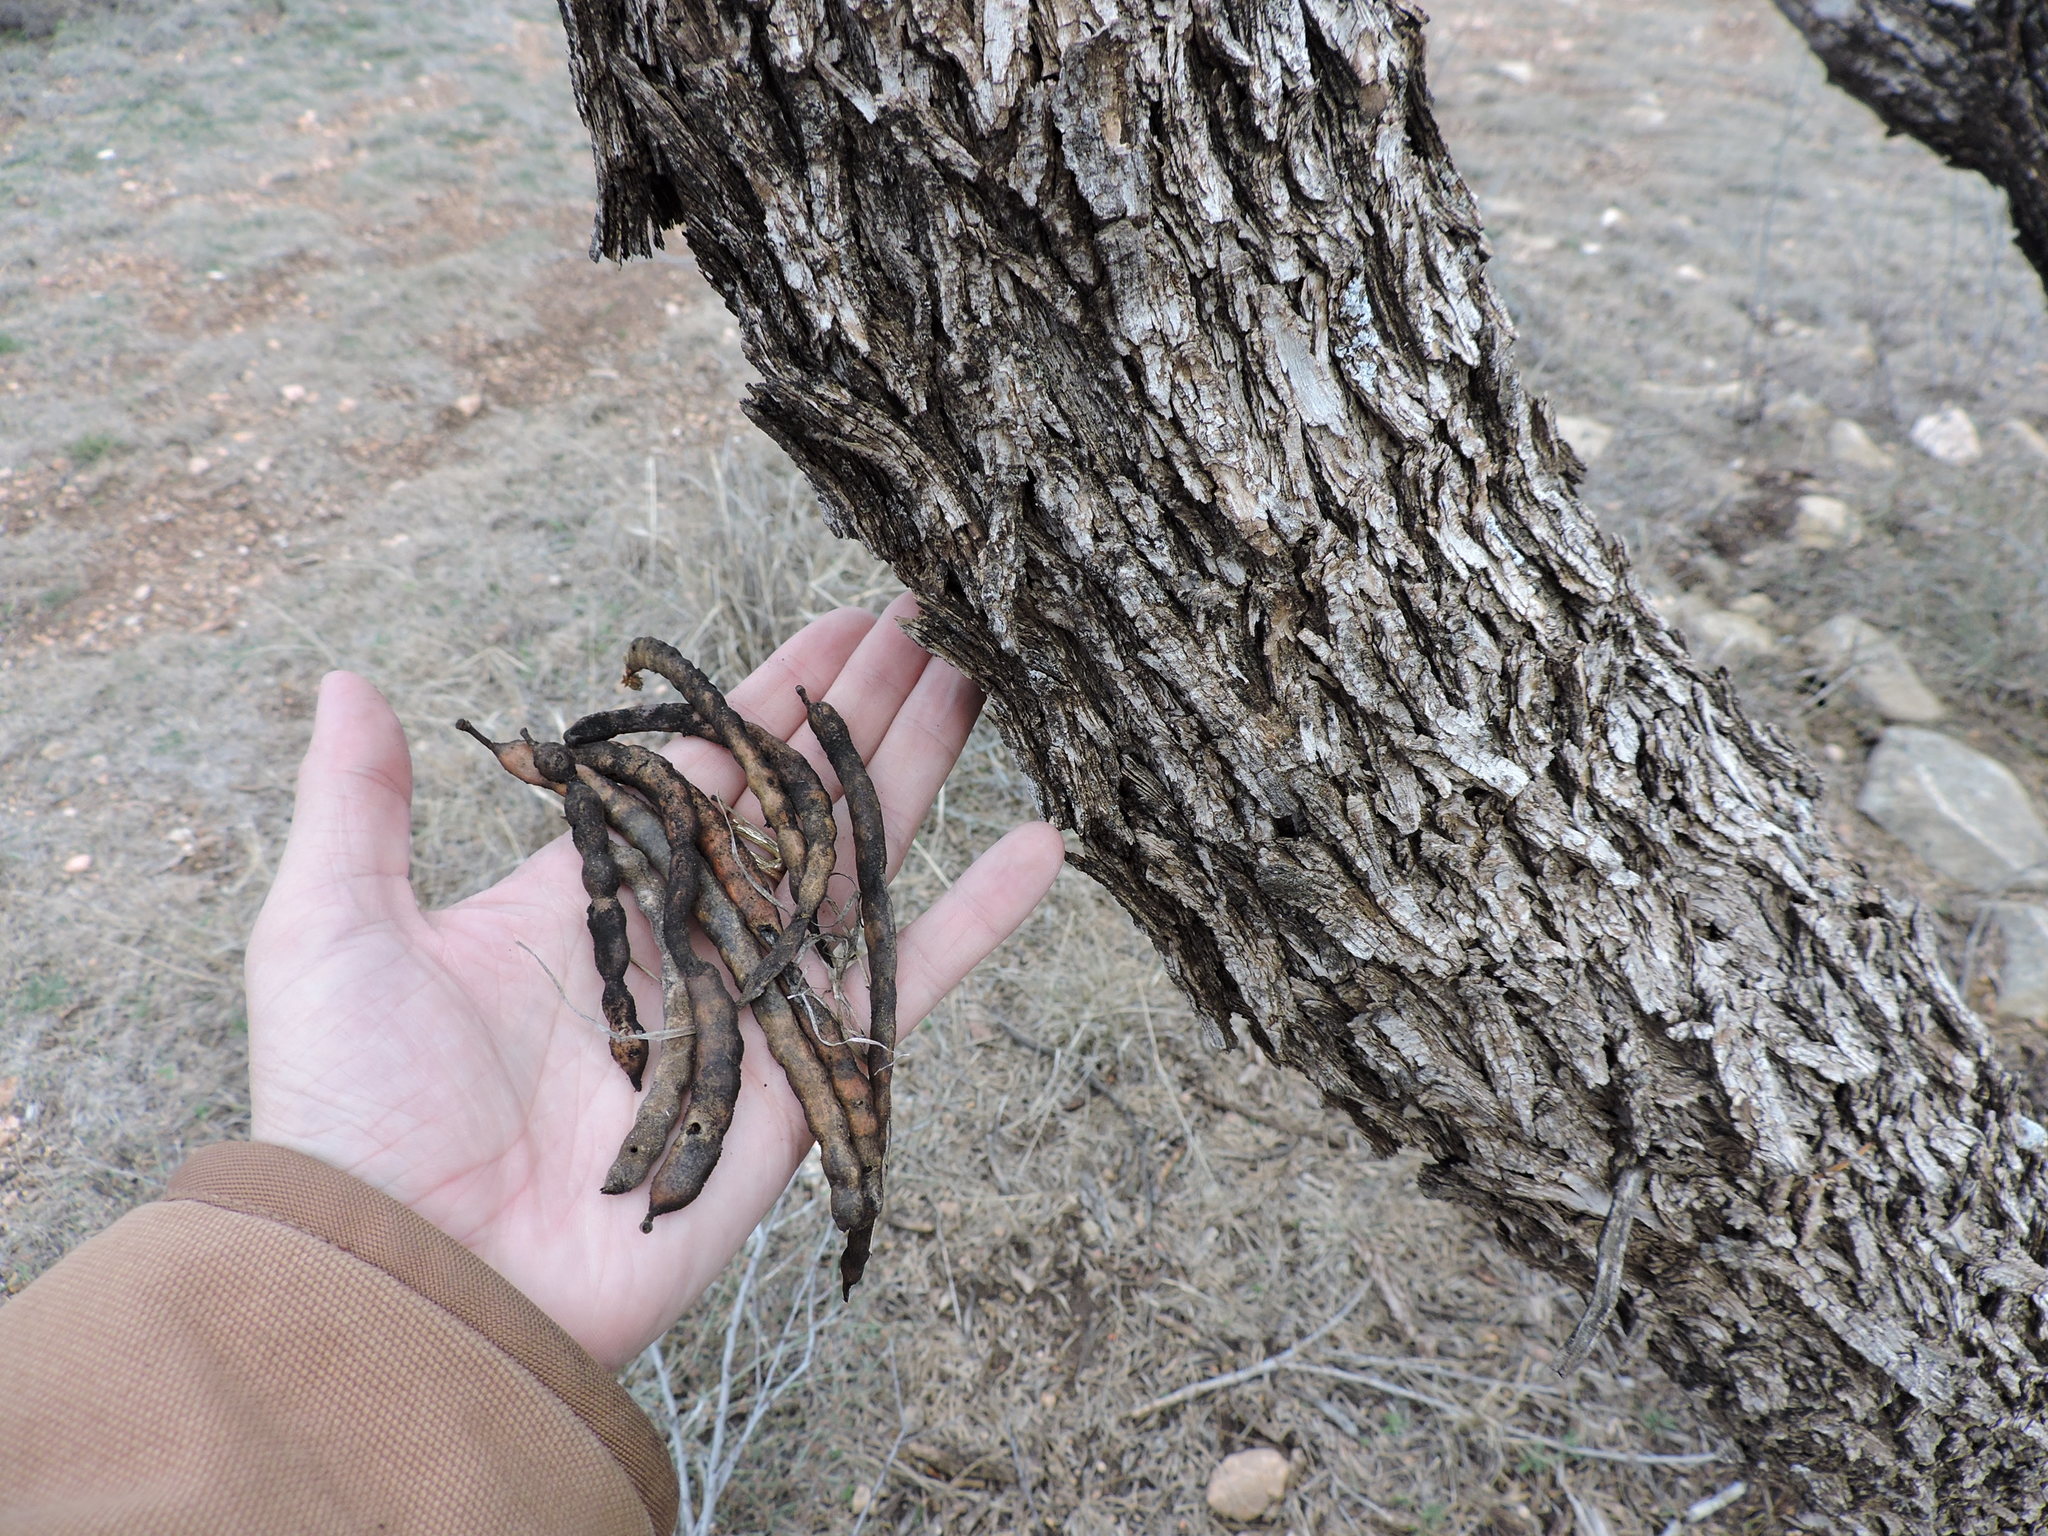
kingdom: Plantae
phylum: Tracheophyta
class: Magnoliopsida
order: Fabales
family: Fabaceae
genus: Prosopis
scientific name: Prosopis glandulosa
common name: Honey mesquite
